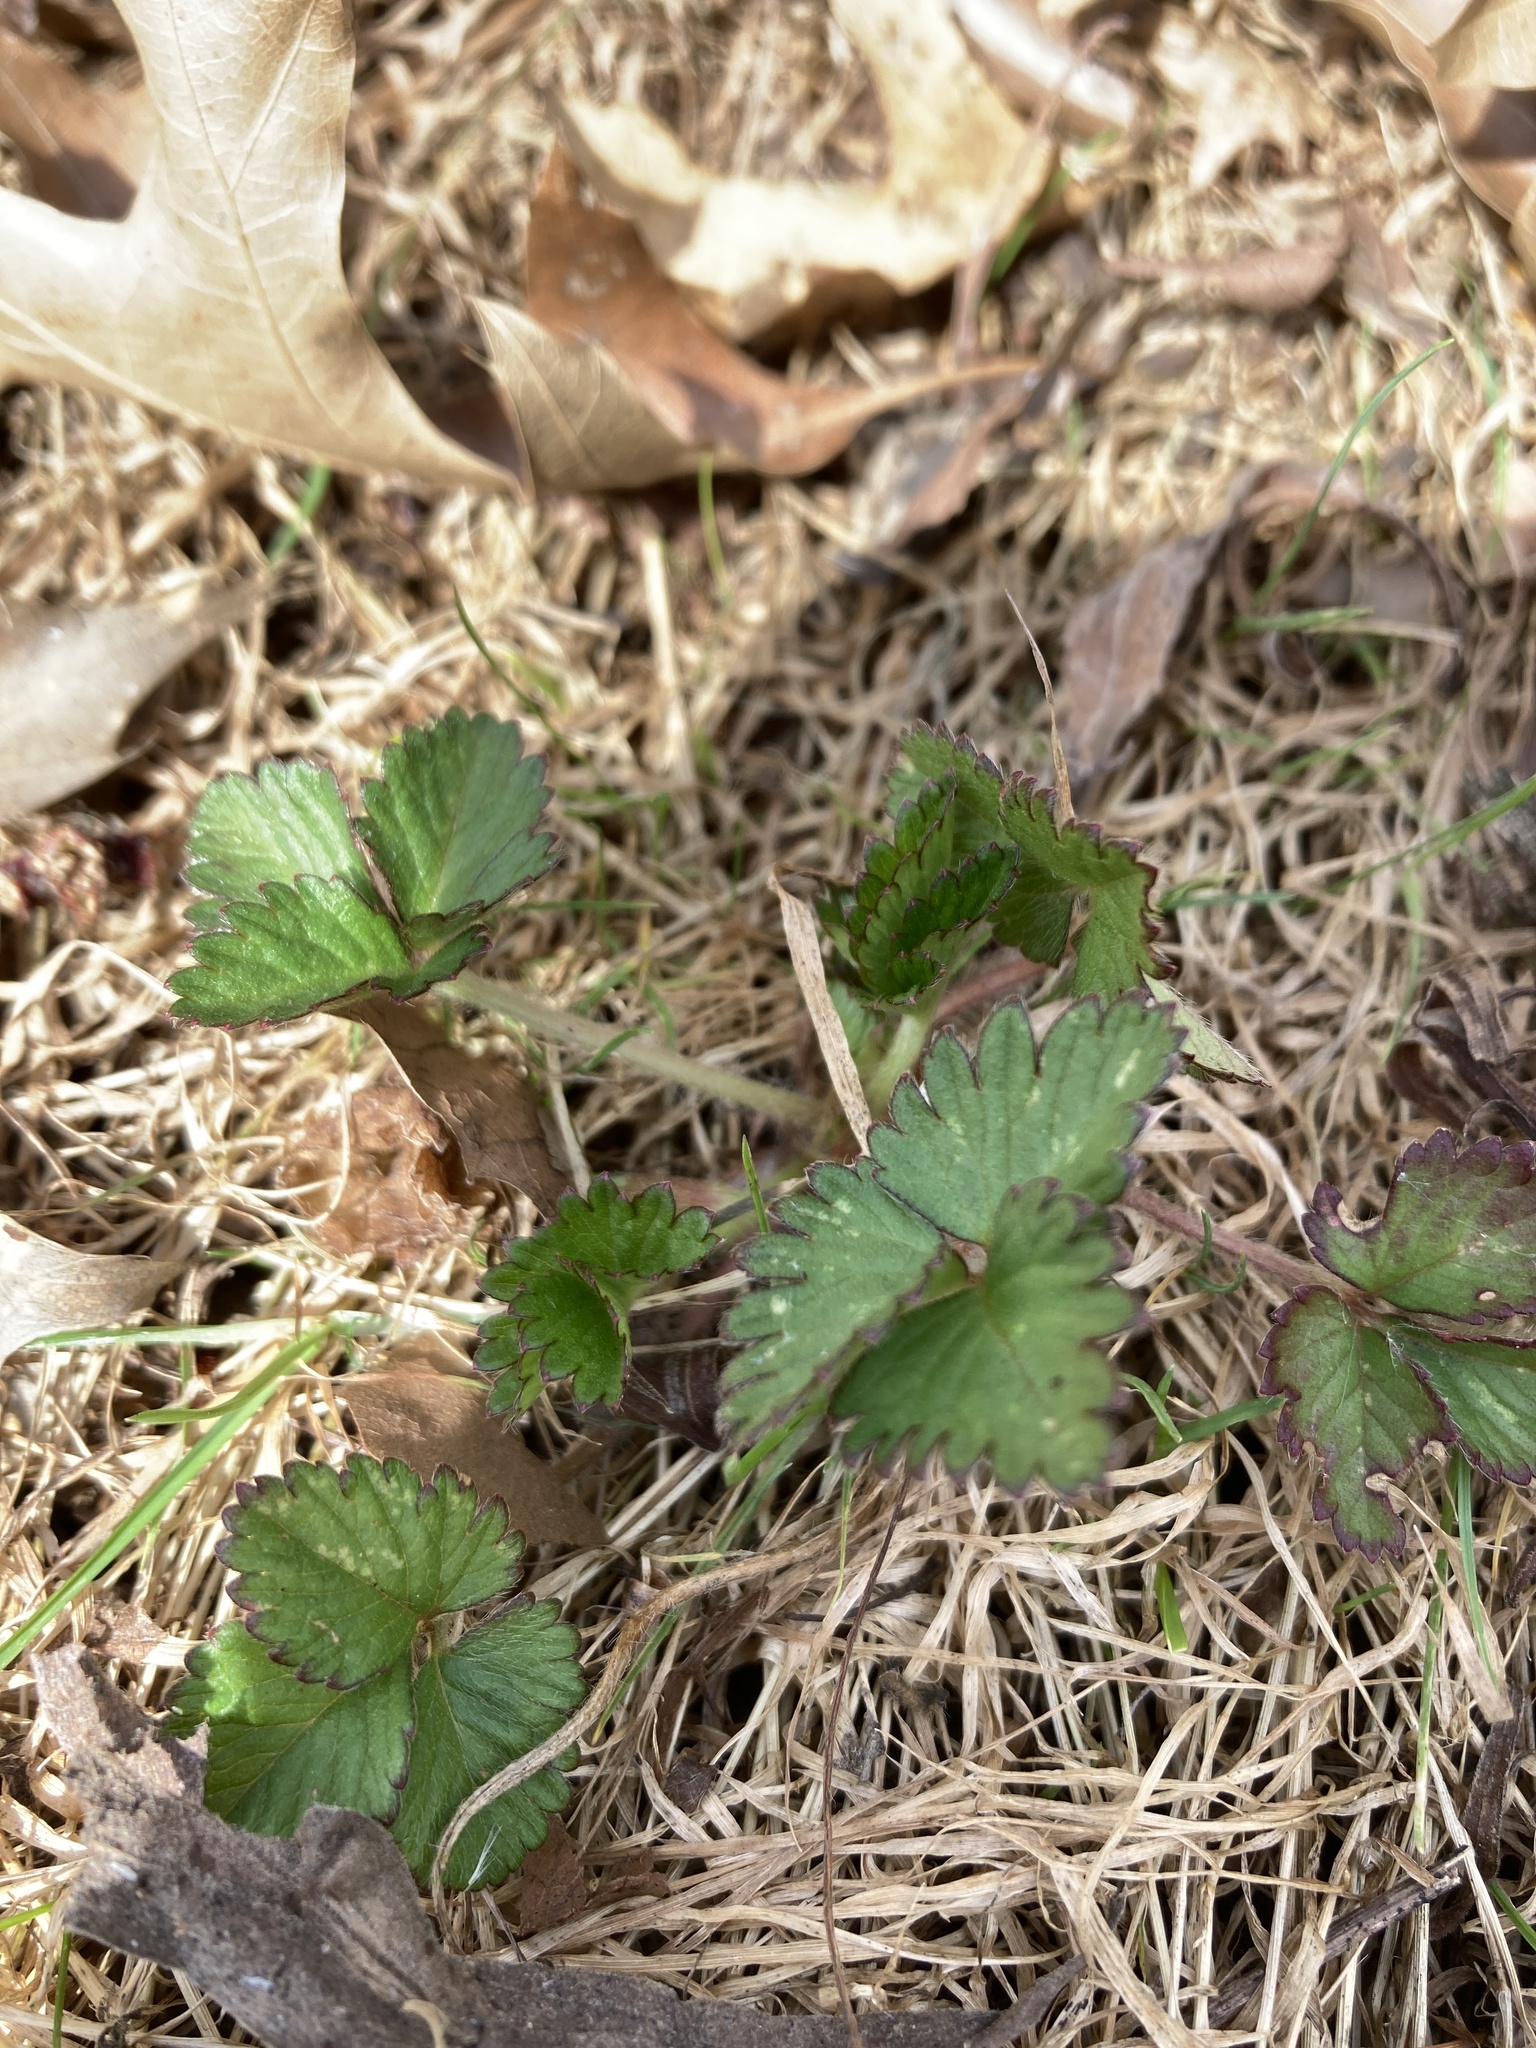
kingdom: Plantae
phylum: Tracheophyta
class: Magnoliopsida
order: Rosales
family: Rosaceae
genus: Potentilla
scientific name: Potentilla indica
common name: Yellow-flowered strawberry
